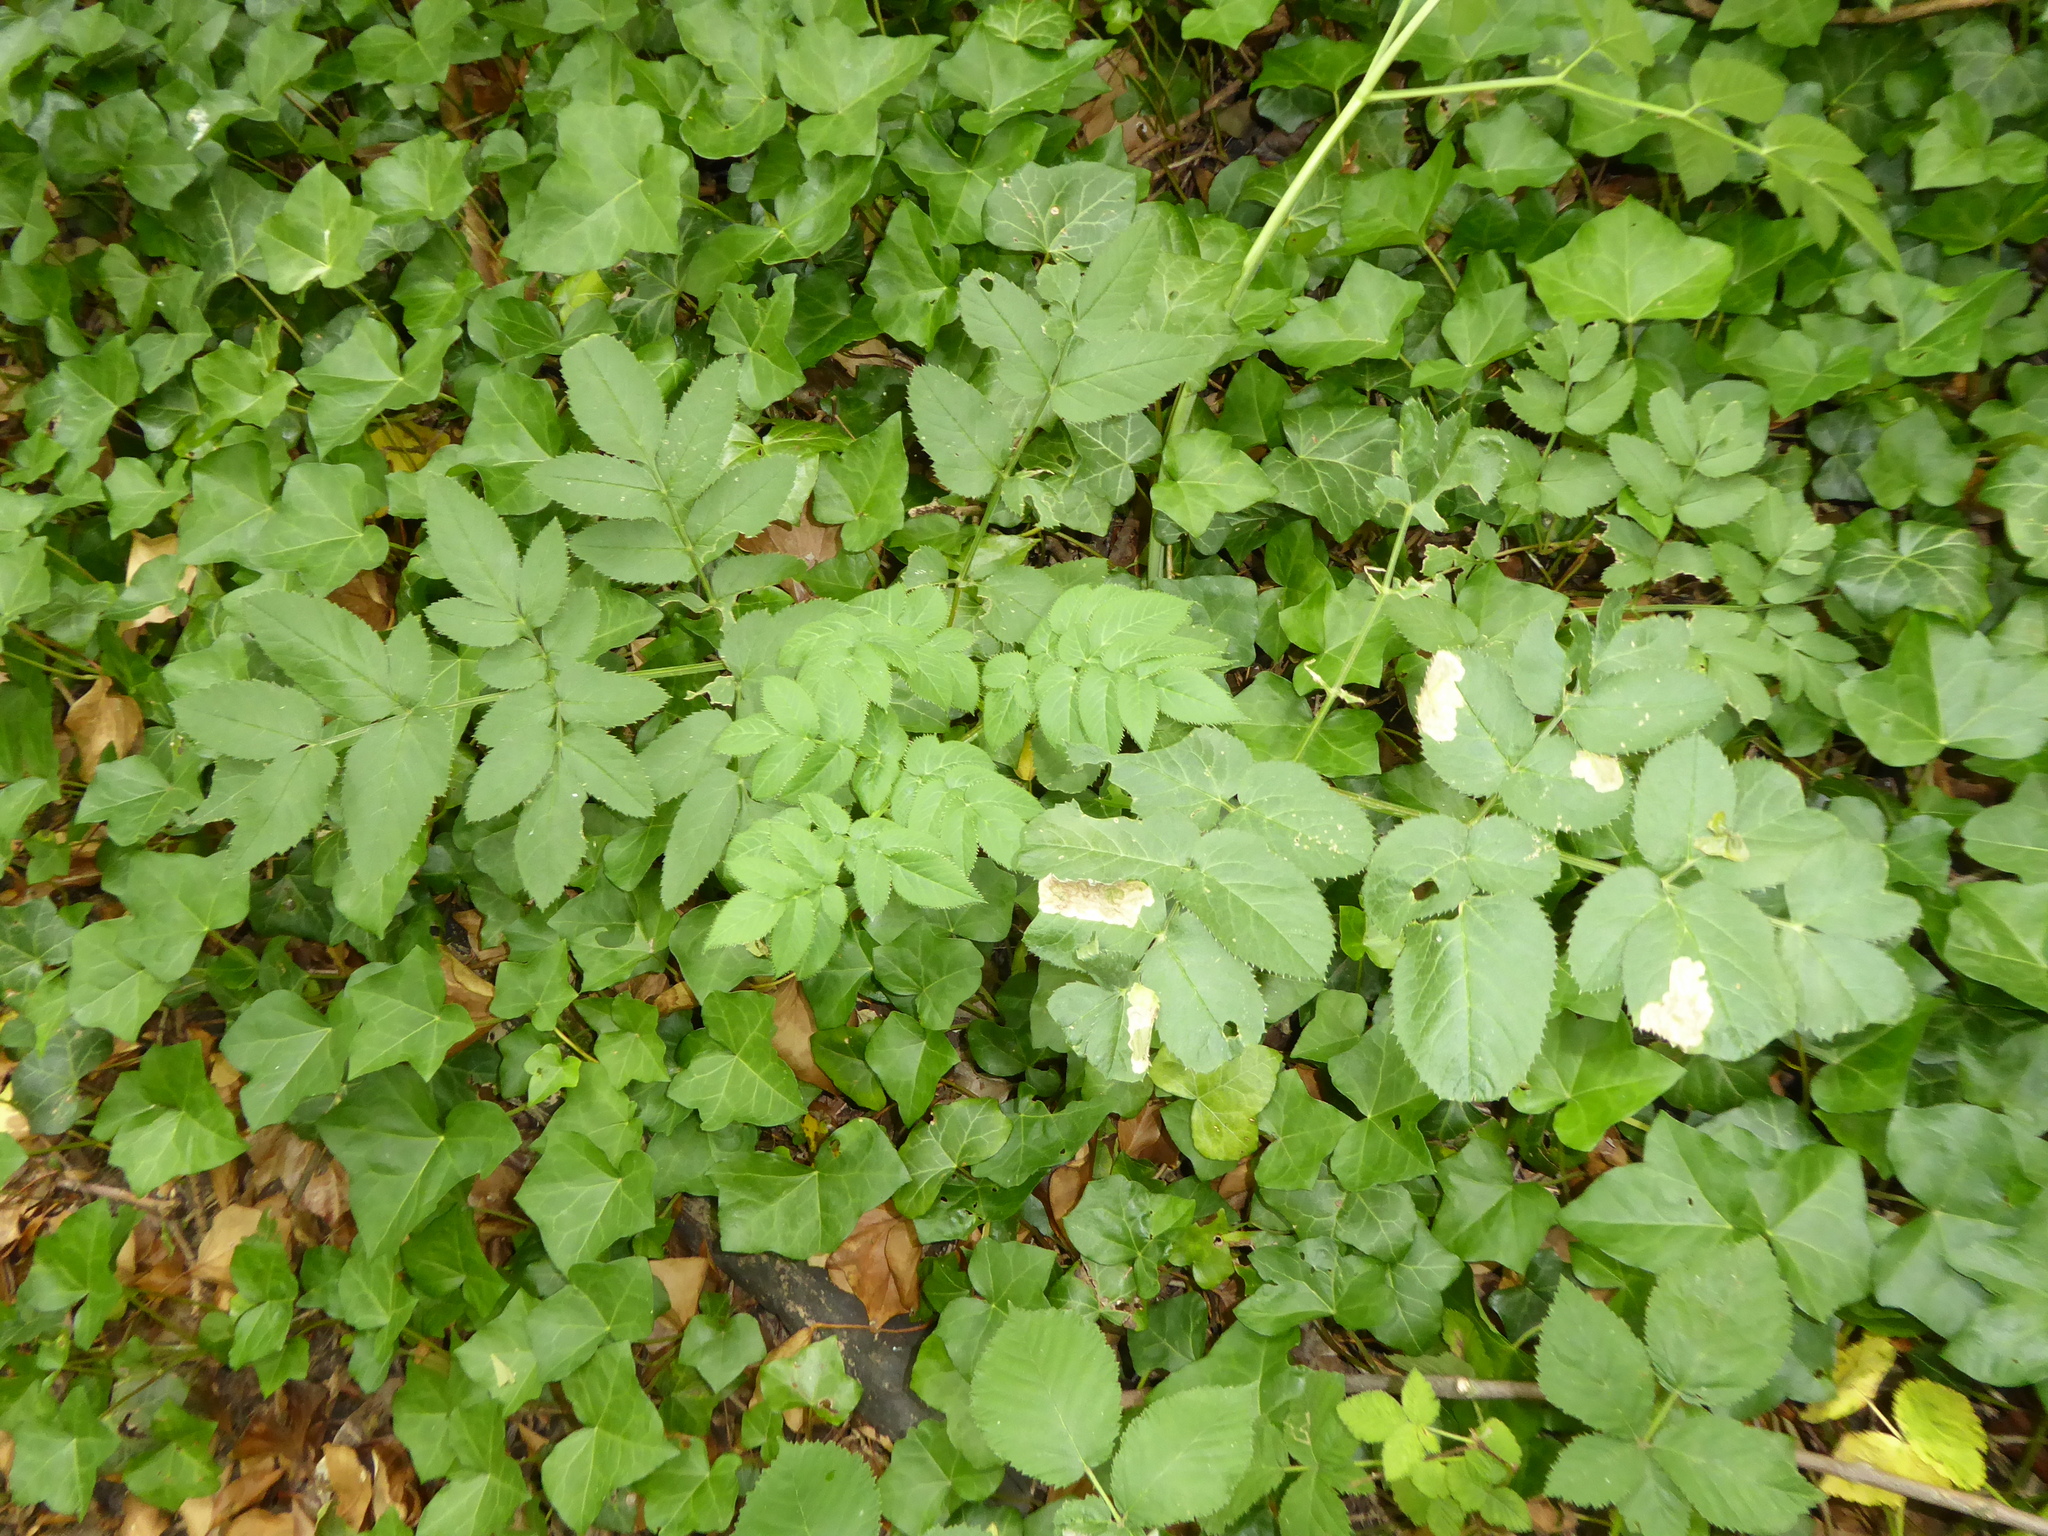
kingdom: Plantae
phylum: Tracheophyta
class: Magnoliopsida
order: Apiales
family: Apiaceae
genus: Angelica
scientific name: Angelica sylvestris
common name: Wild angelica
